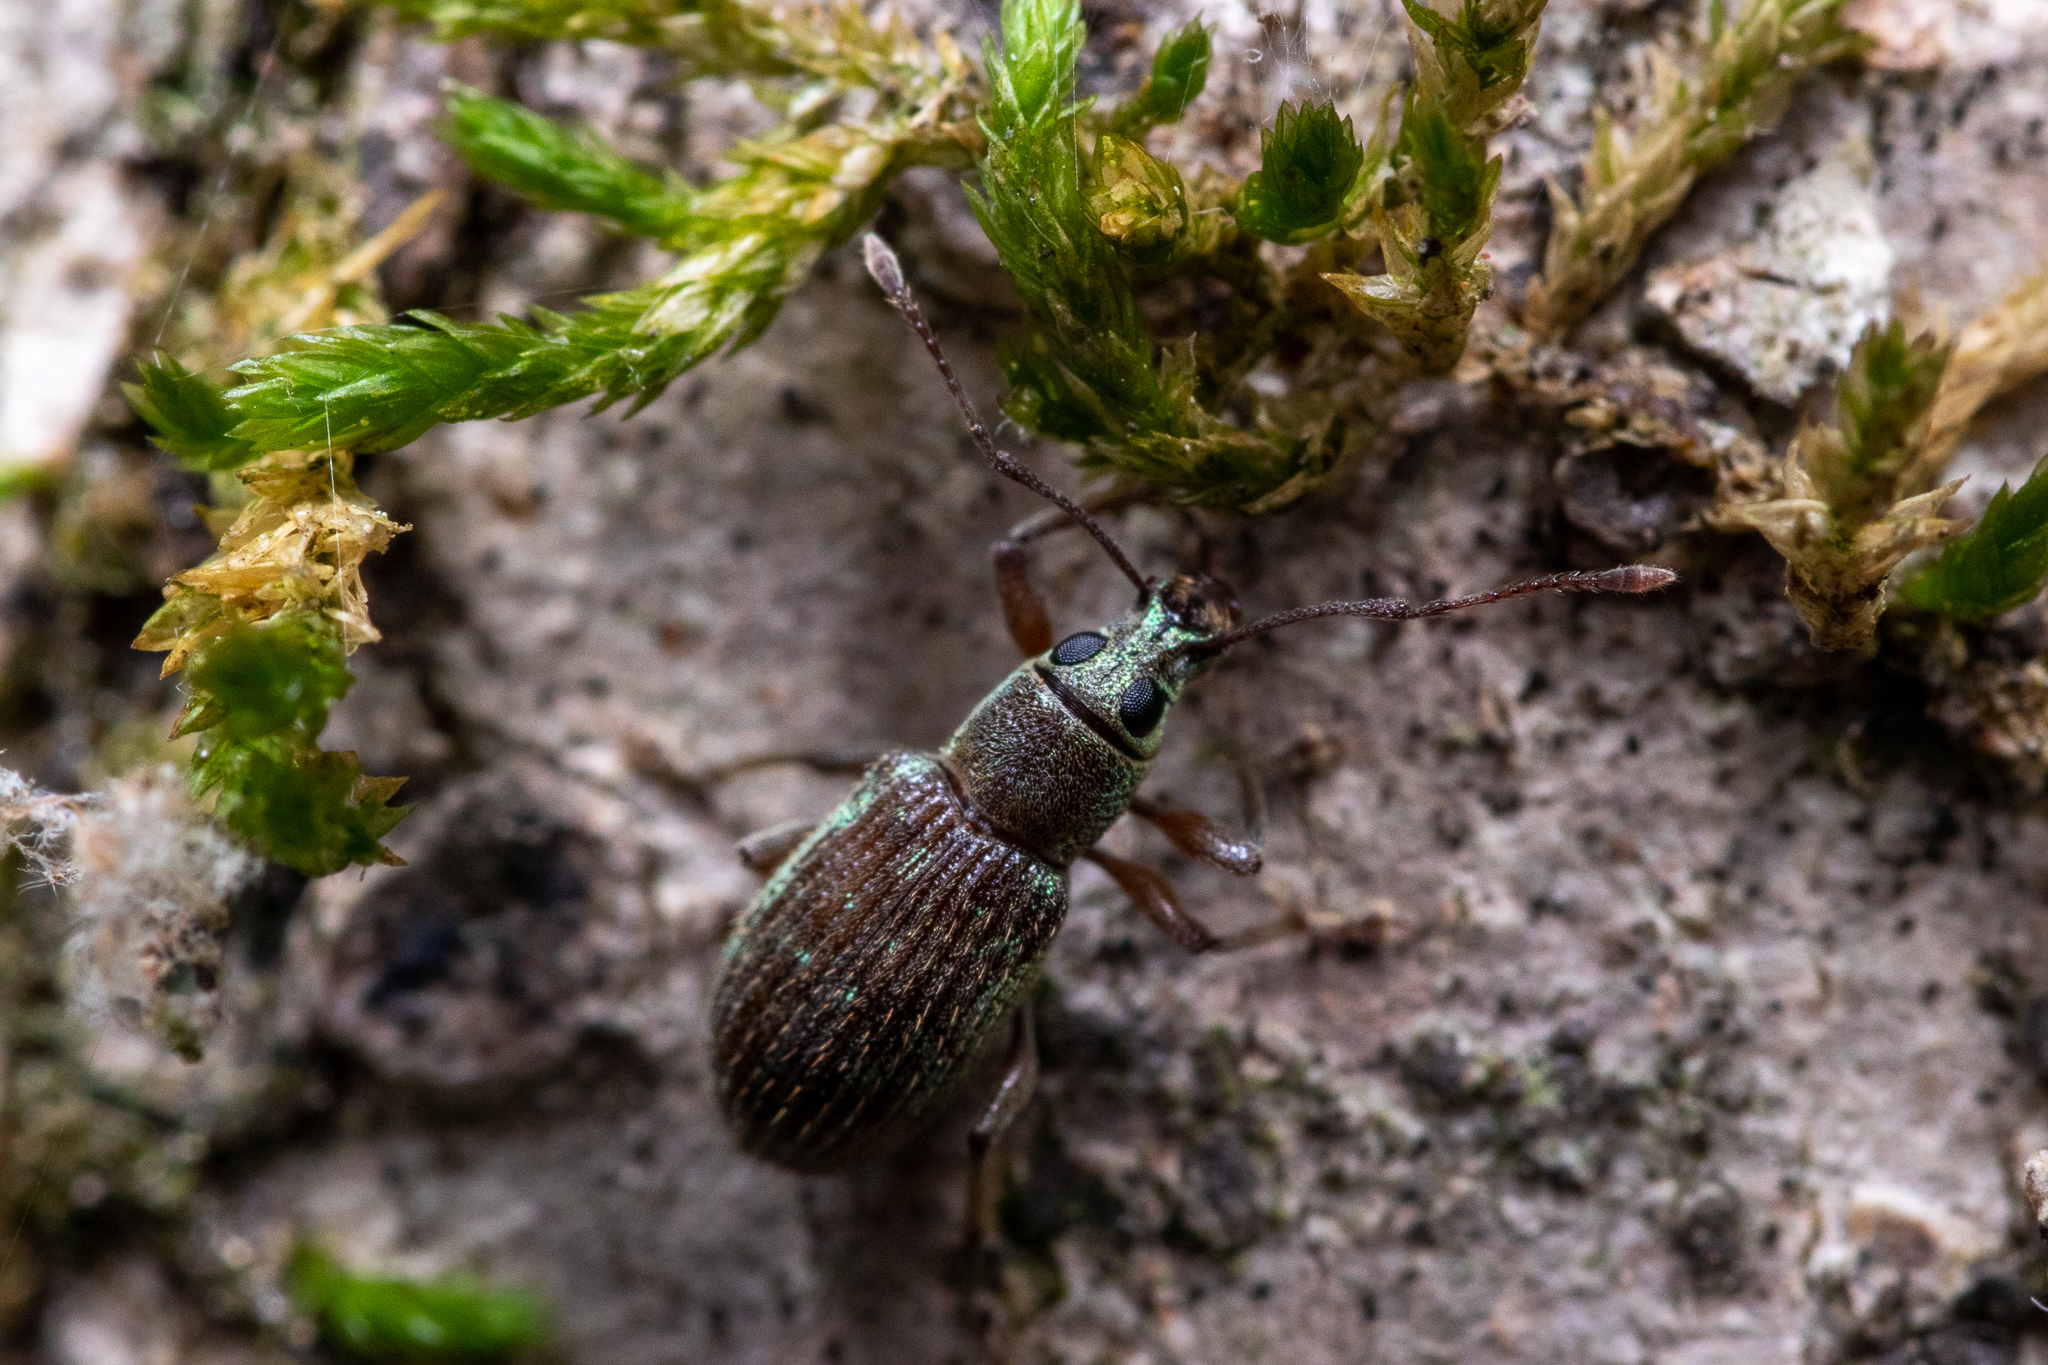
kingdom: Animalia
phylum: Arthropoda
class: Insecta
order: Coleoptera
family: Curculionidae
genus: Cyrtepistomus
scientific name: Cyrtepistomus castaneus
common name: Weevil
